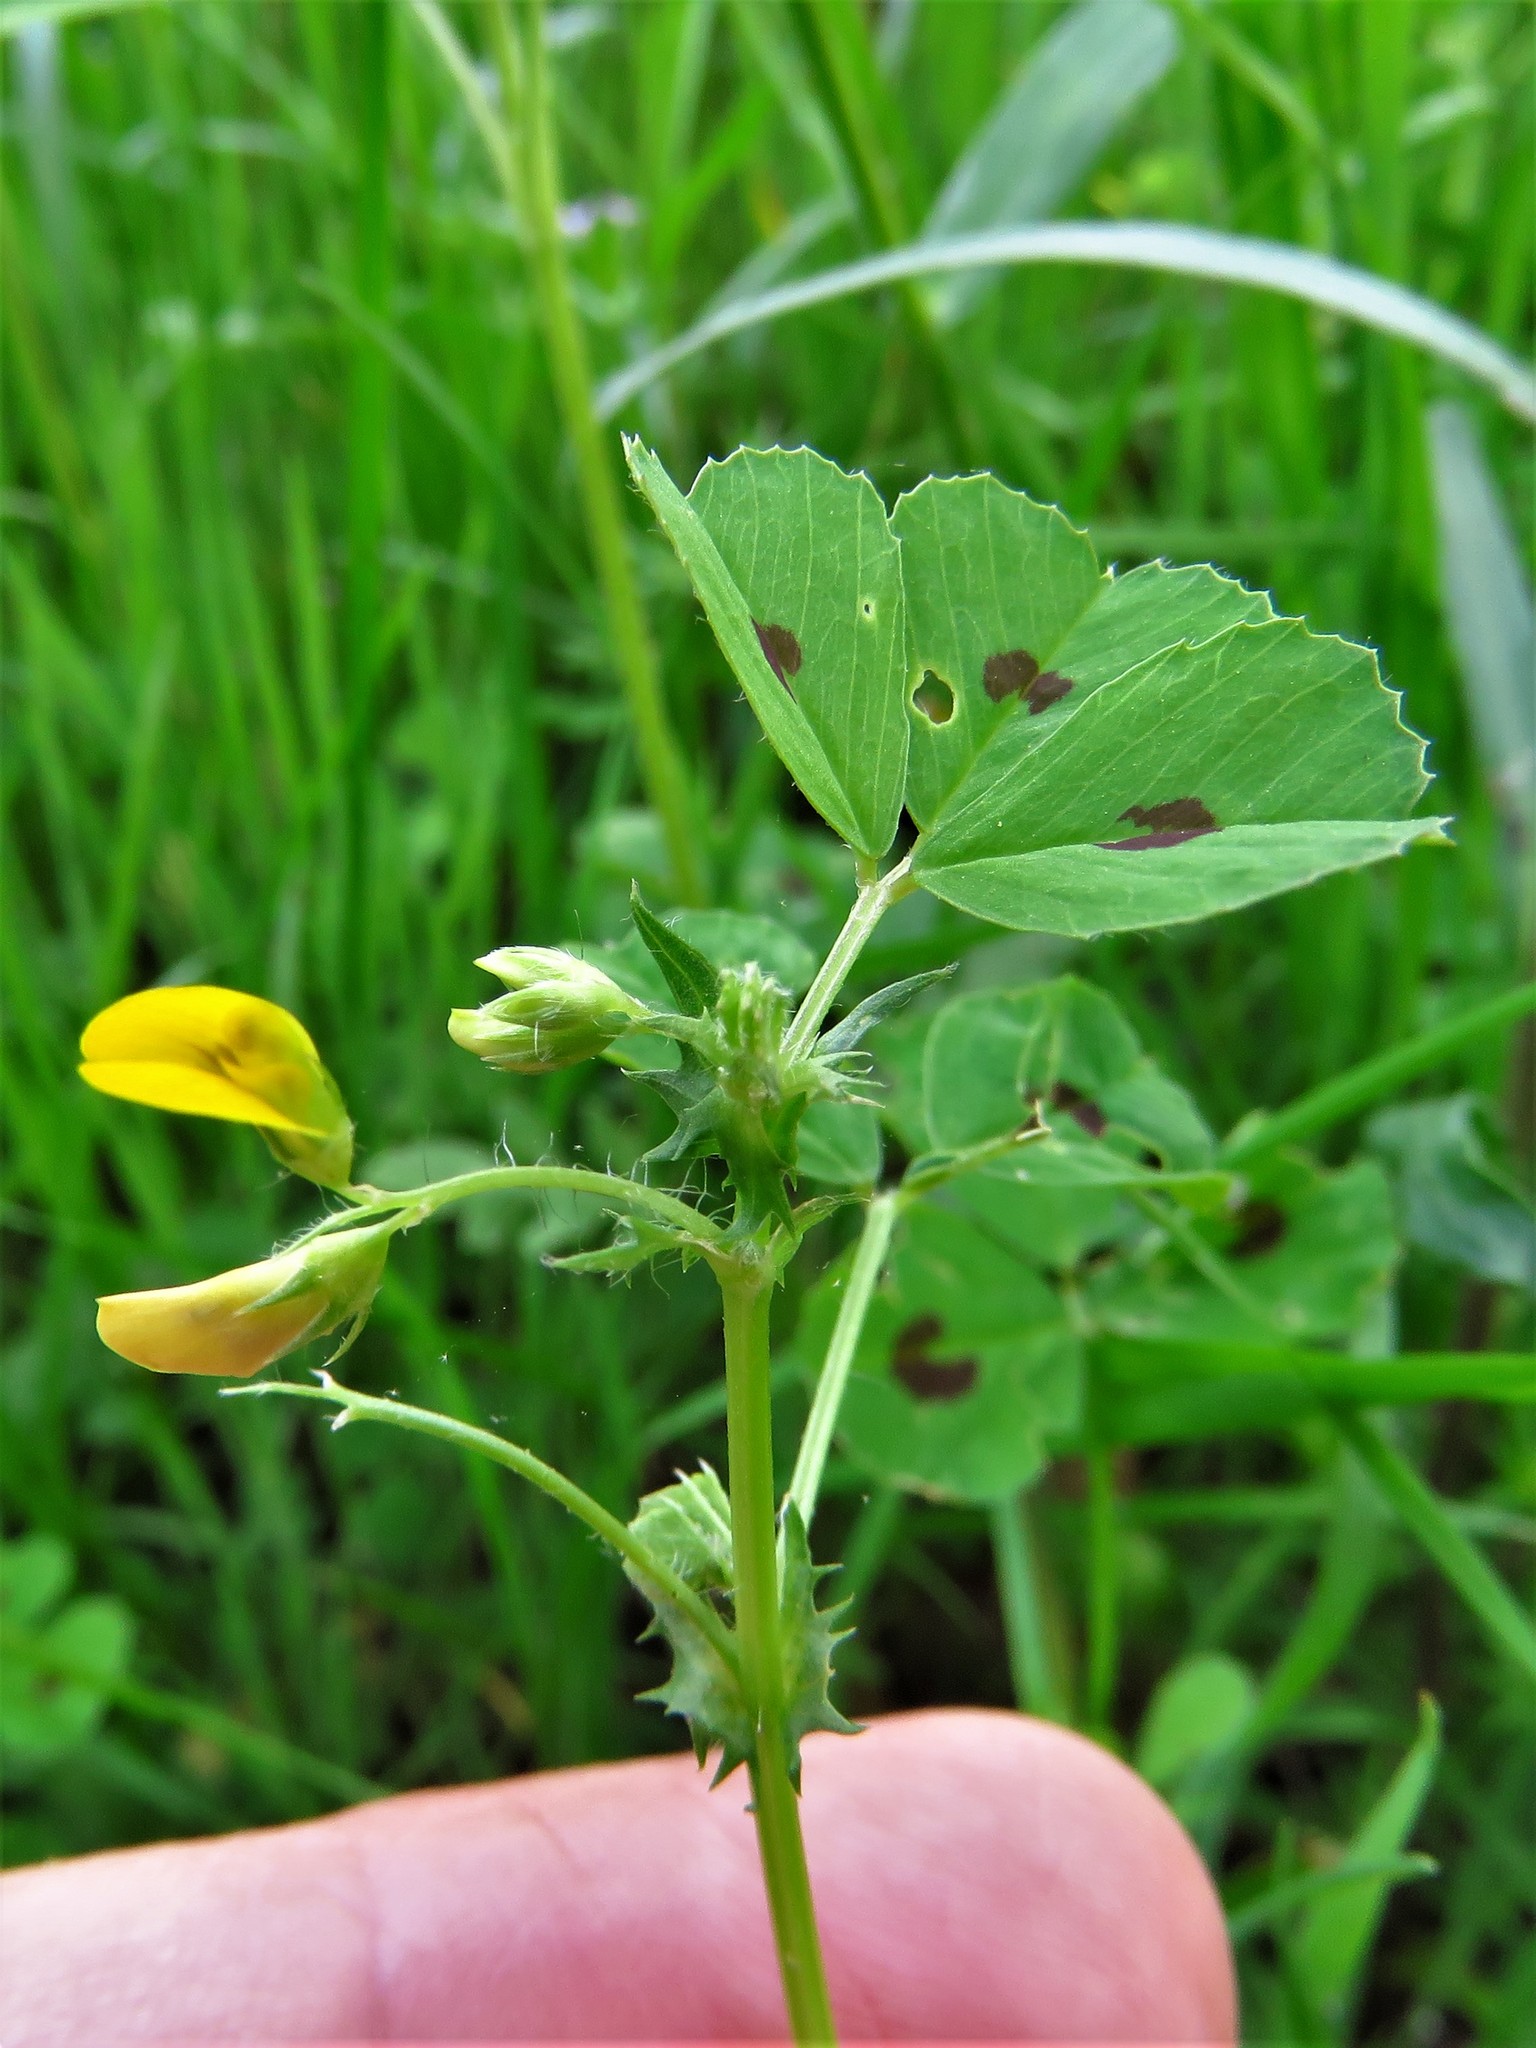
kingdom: Plantae
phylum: Tracheophyta
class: Magnoliopsida
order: Fabales
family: Fabaceae
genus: Medicago
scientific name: Medicago arabica
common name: Spotted medick
